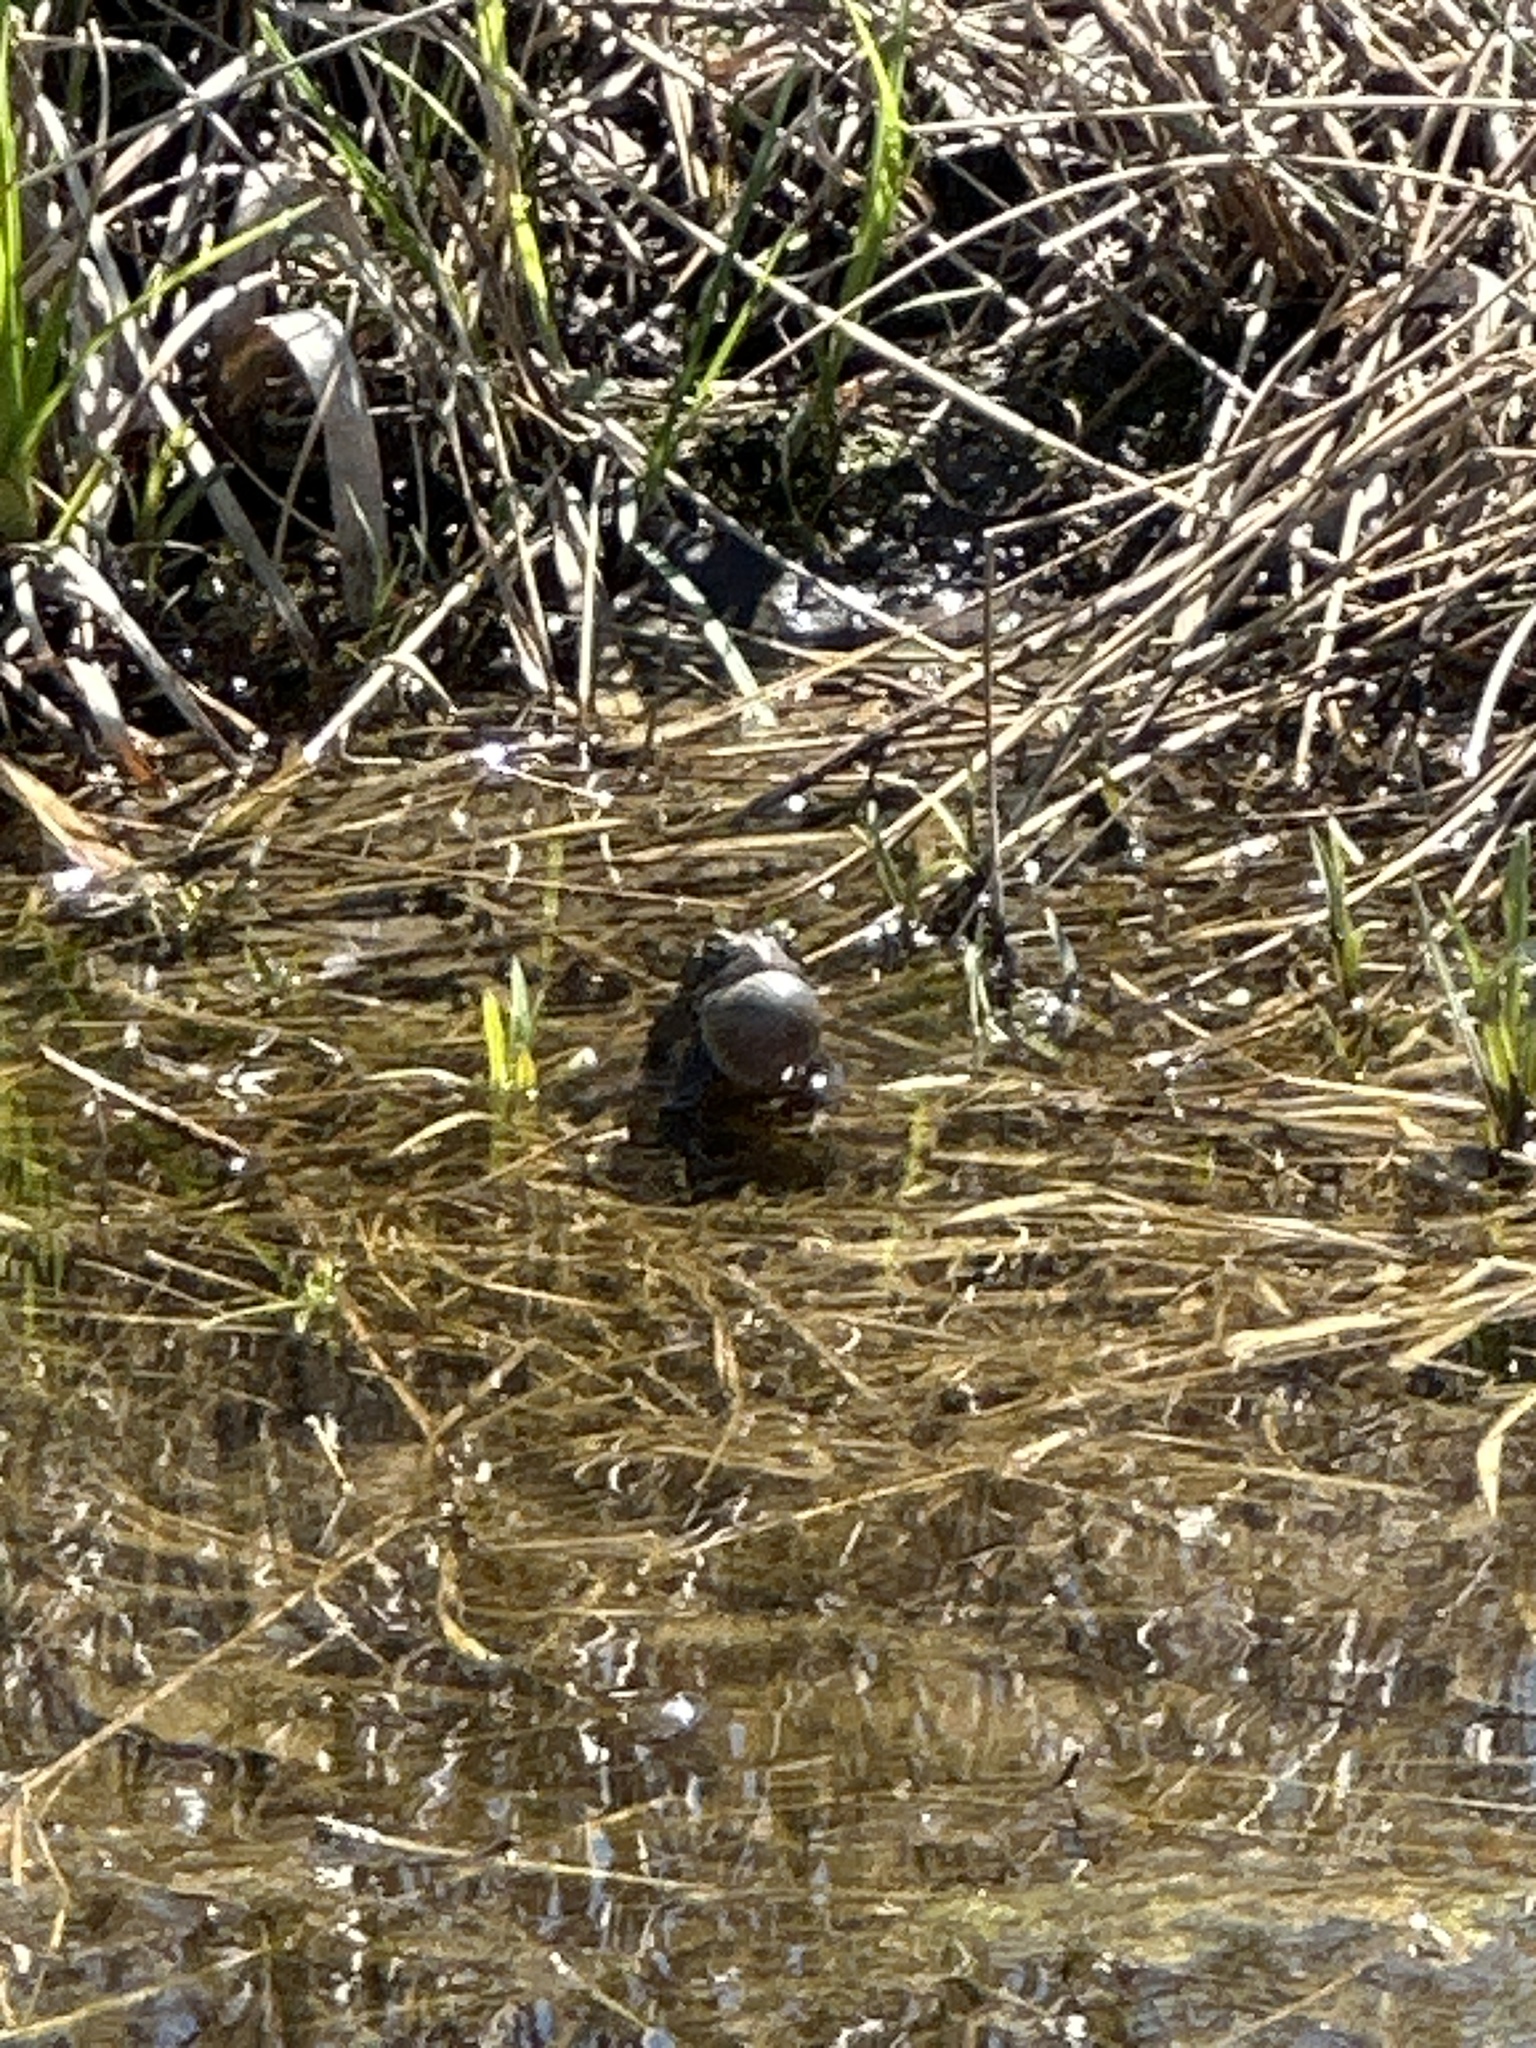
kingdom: Animalia
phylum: Chordata
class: Amphibia
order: Anura
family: Bufonidae
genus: Anaxyrus
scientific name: Anaxyrus americanus
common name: American toad
